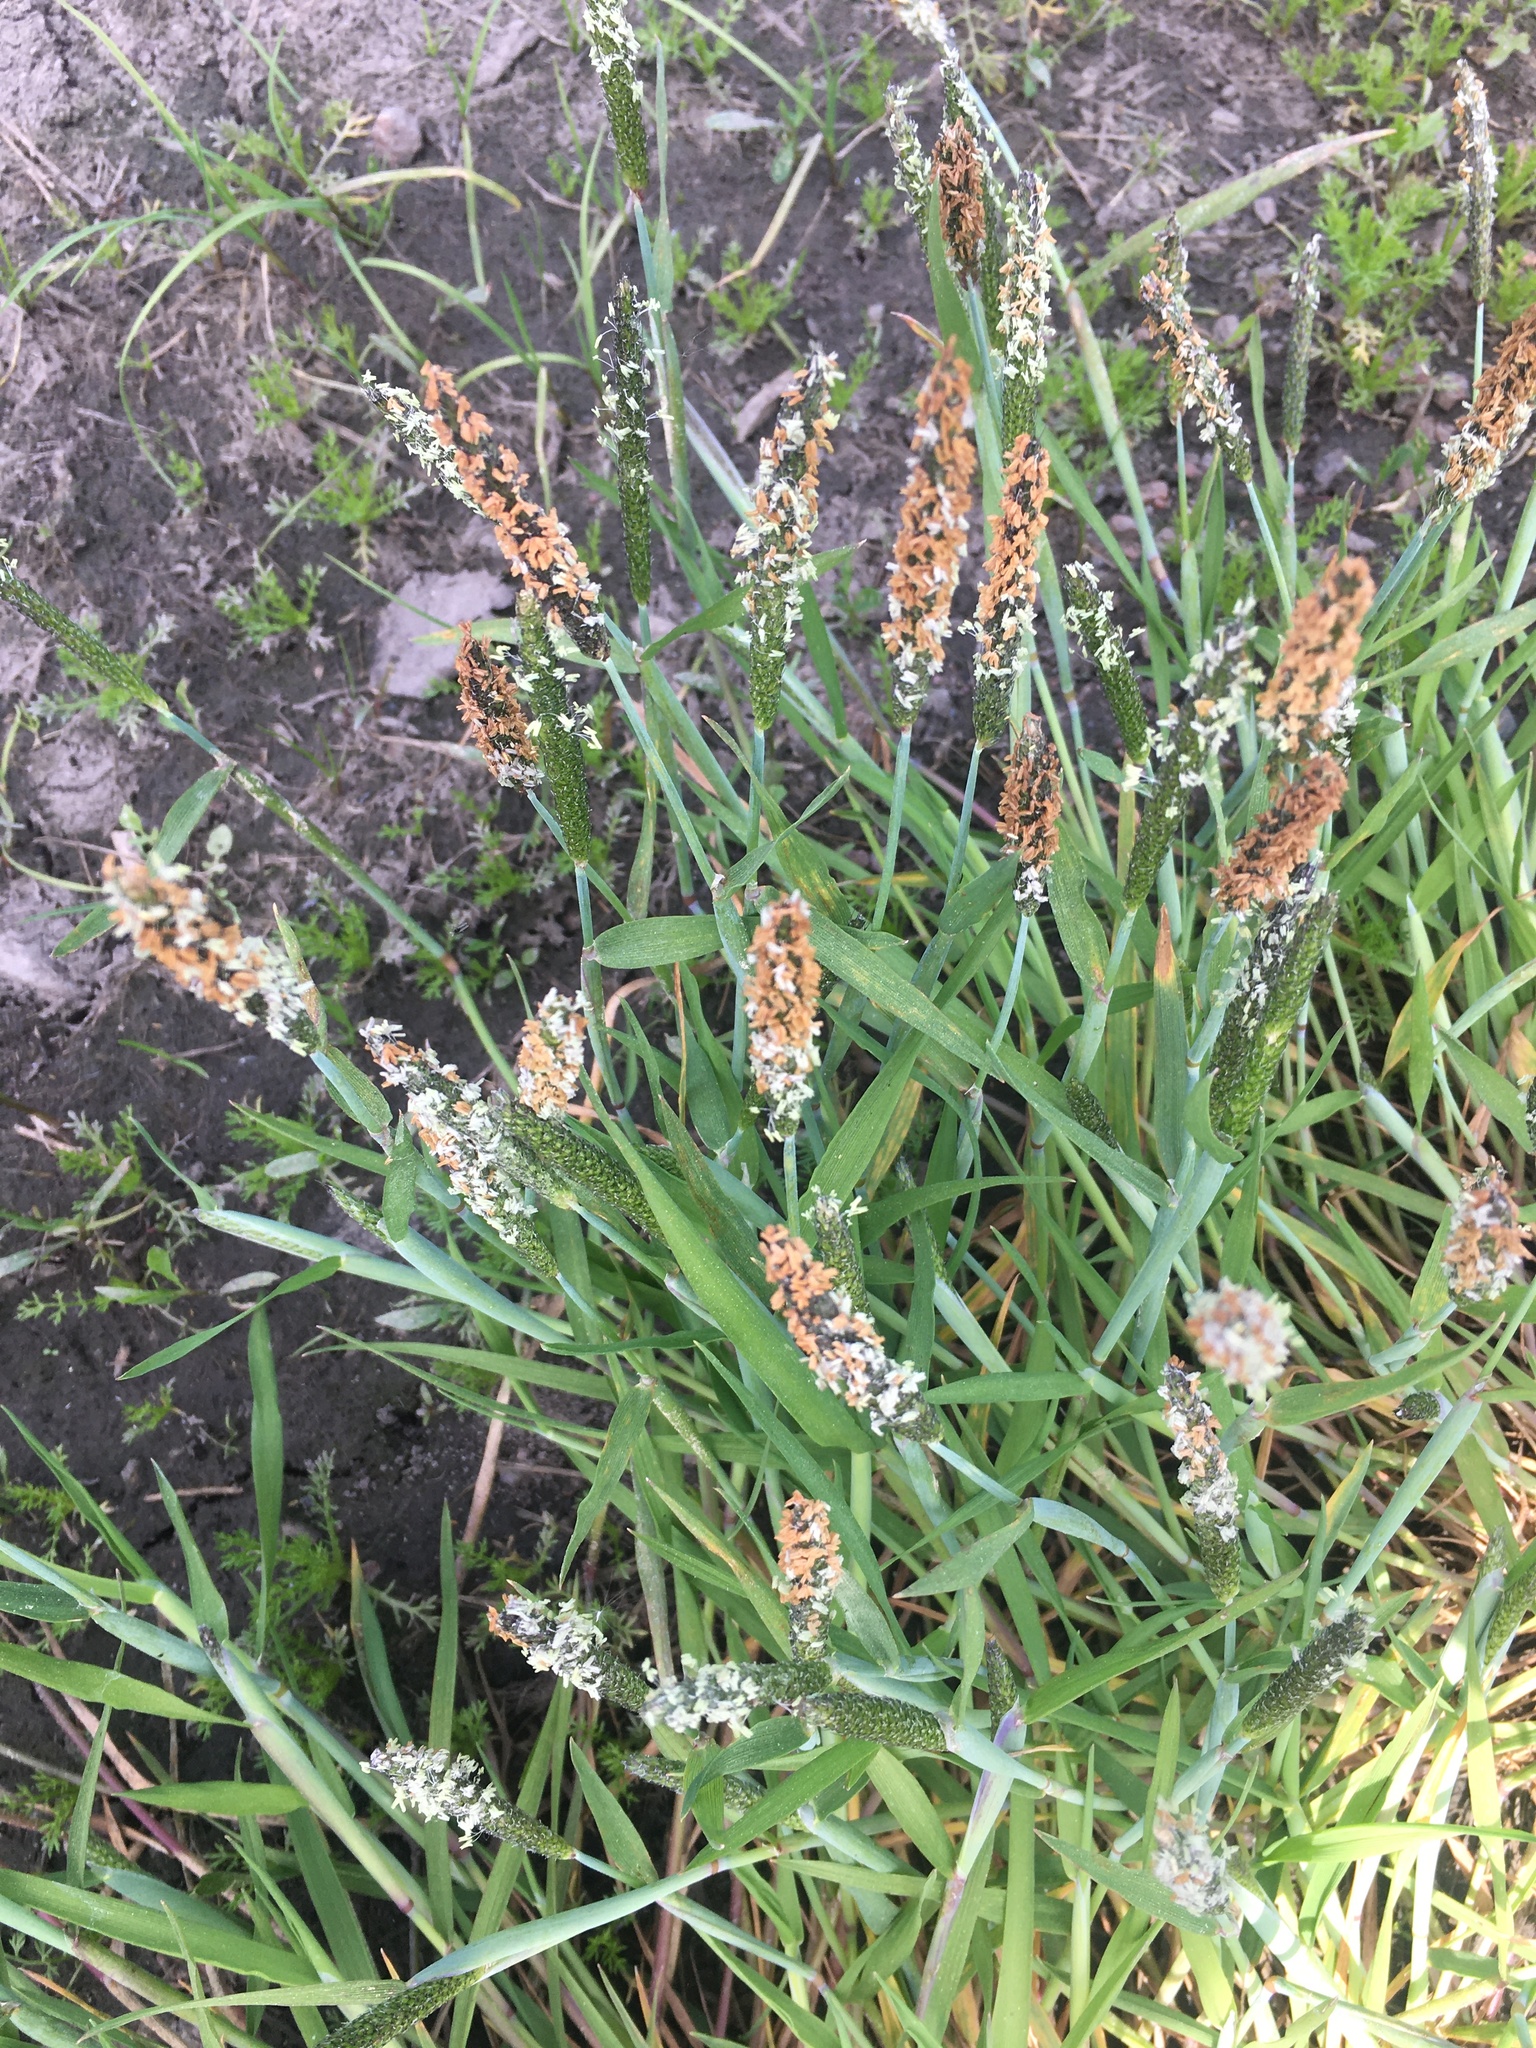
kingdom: Plantae
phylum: Tracheophyta
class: Liliopsida
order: Poales
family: Poaceae
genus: Alopecurus
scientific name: Alopecurus geniculatus
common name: Water foxtail
